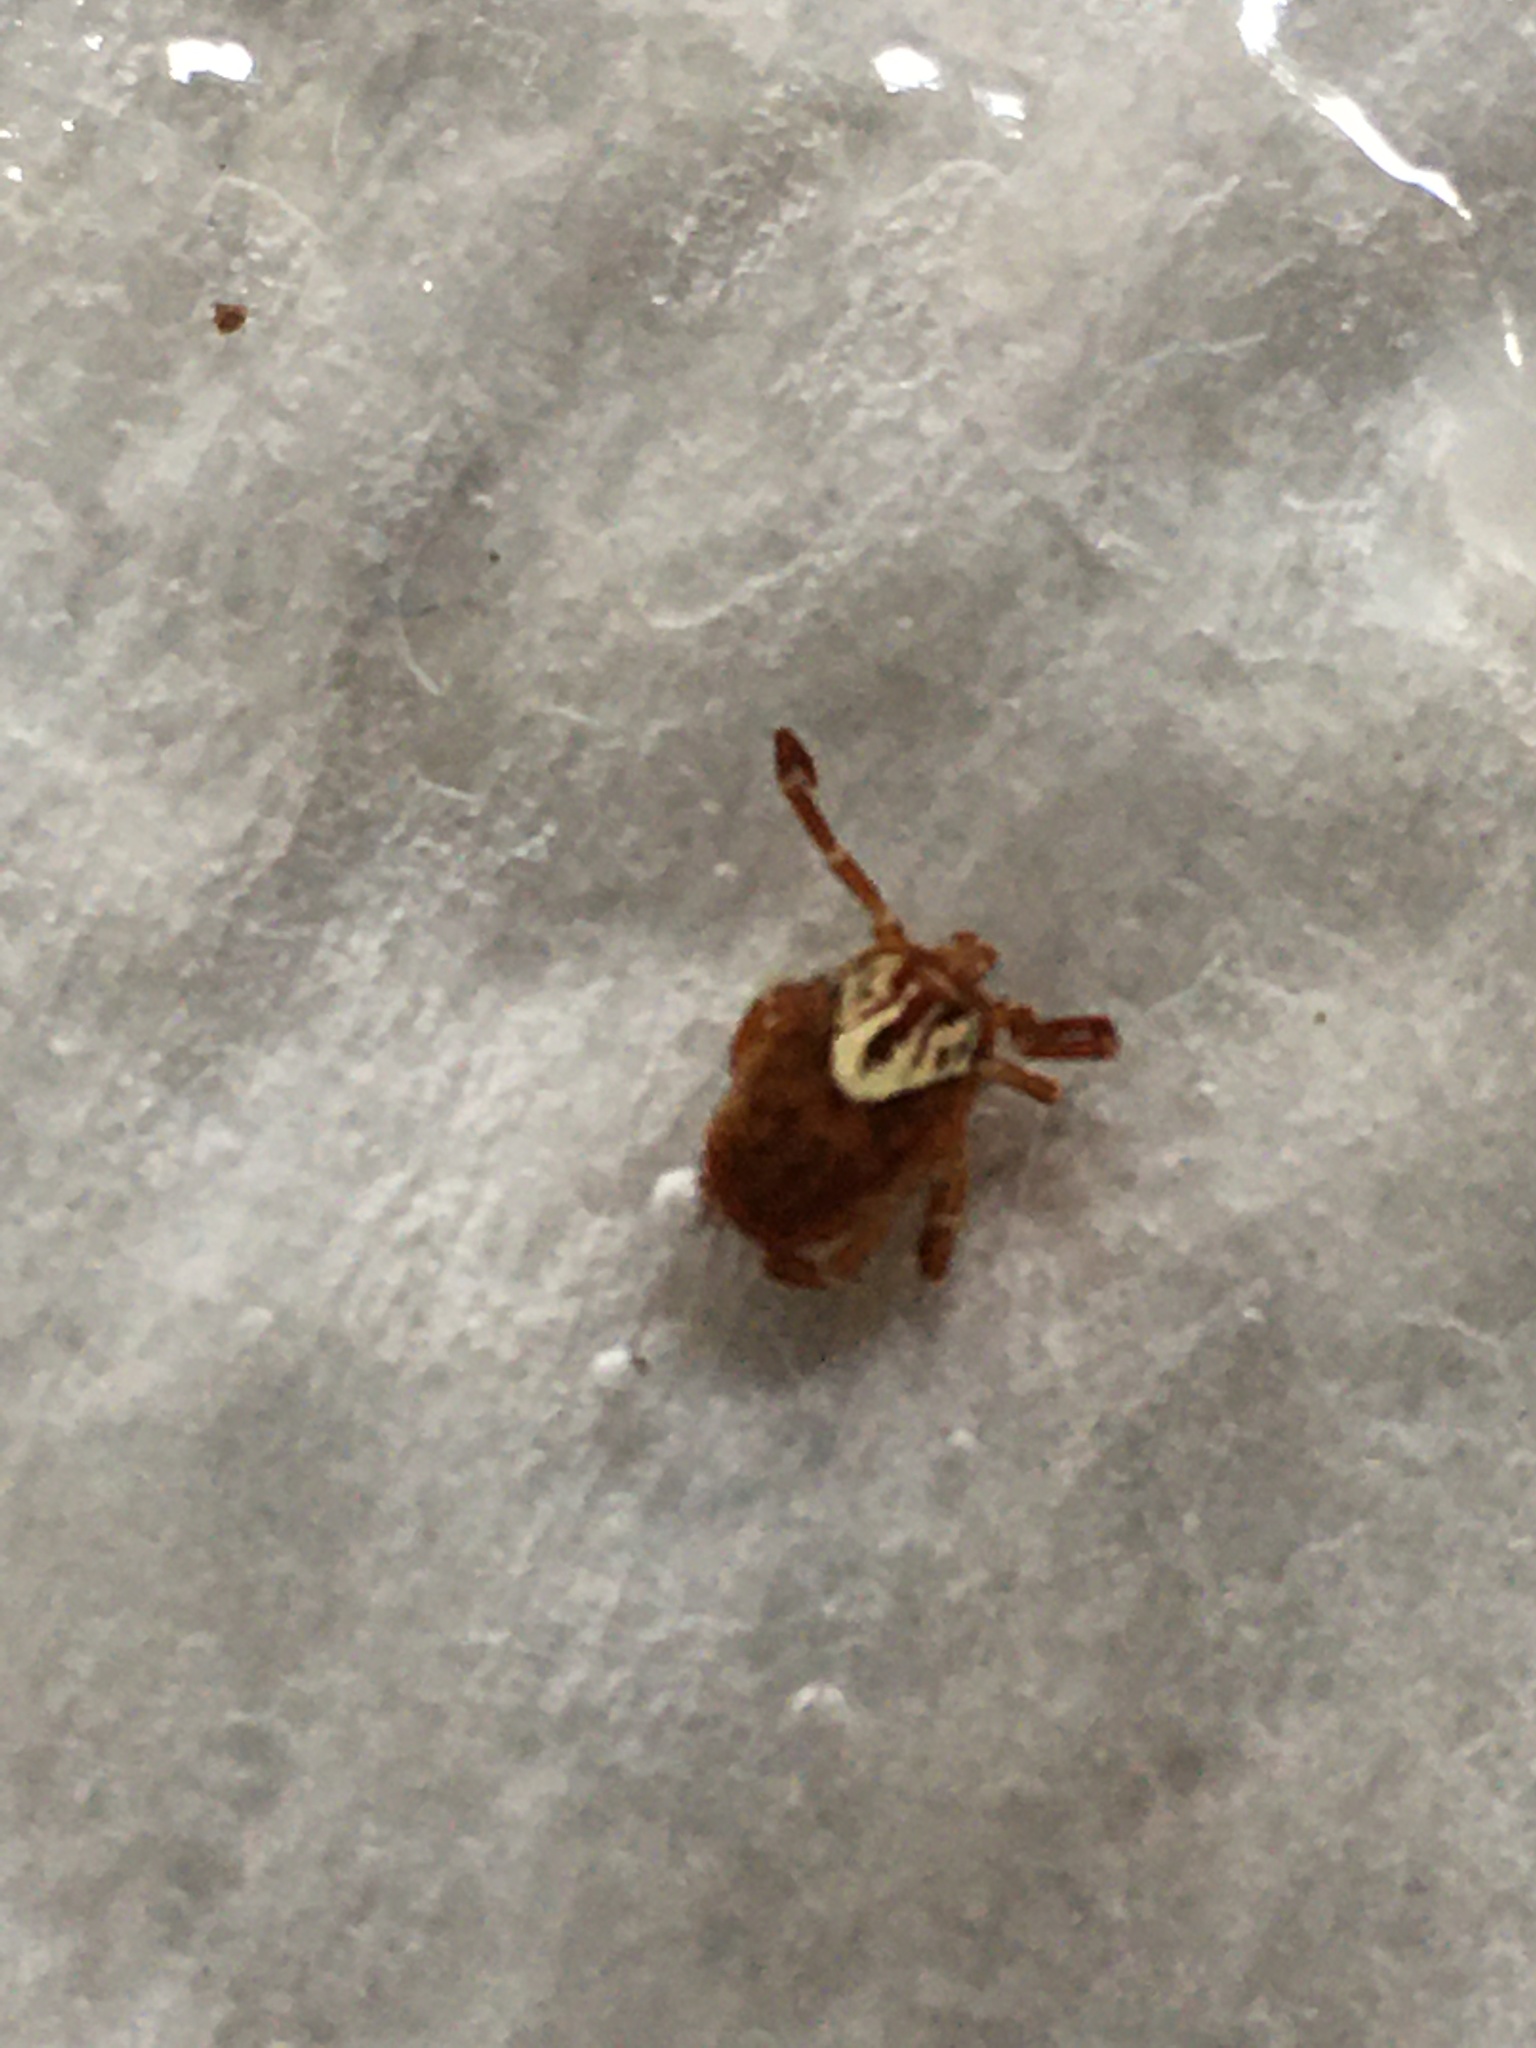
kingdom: Animalia
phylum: Arthropoda
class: Arachnida
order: Ixodida
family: Ixodidae
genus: Amblyomma
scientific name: Amblyomma maculatum
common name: Gulf coast tick
